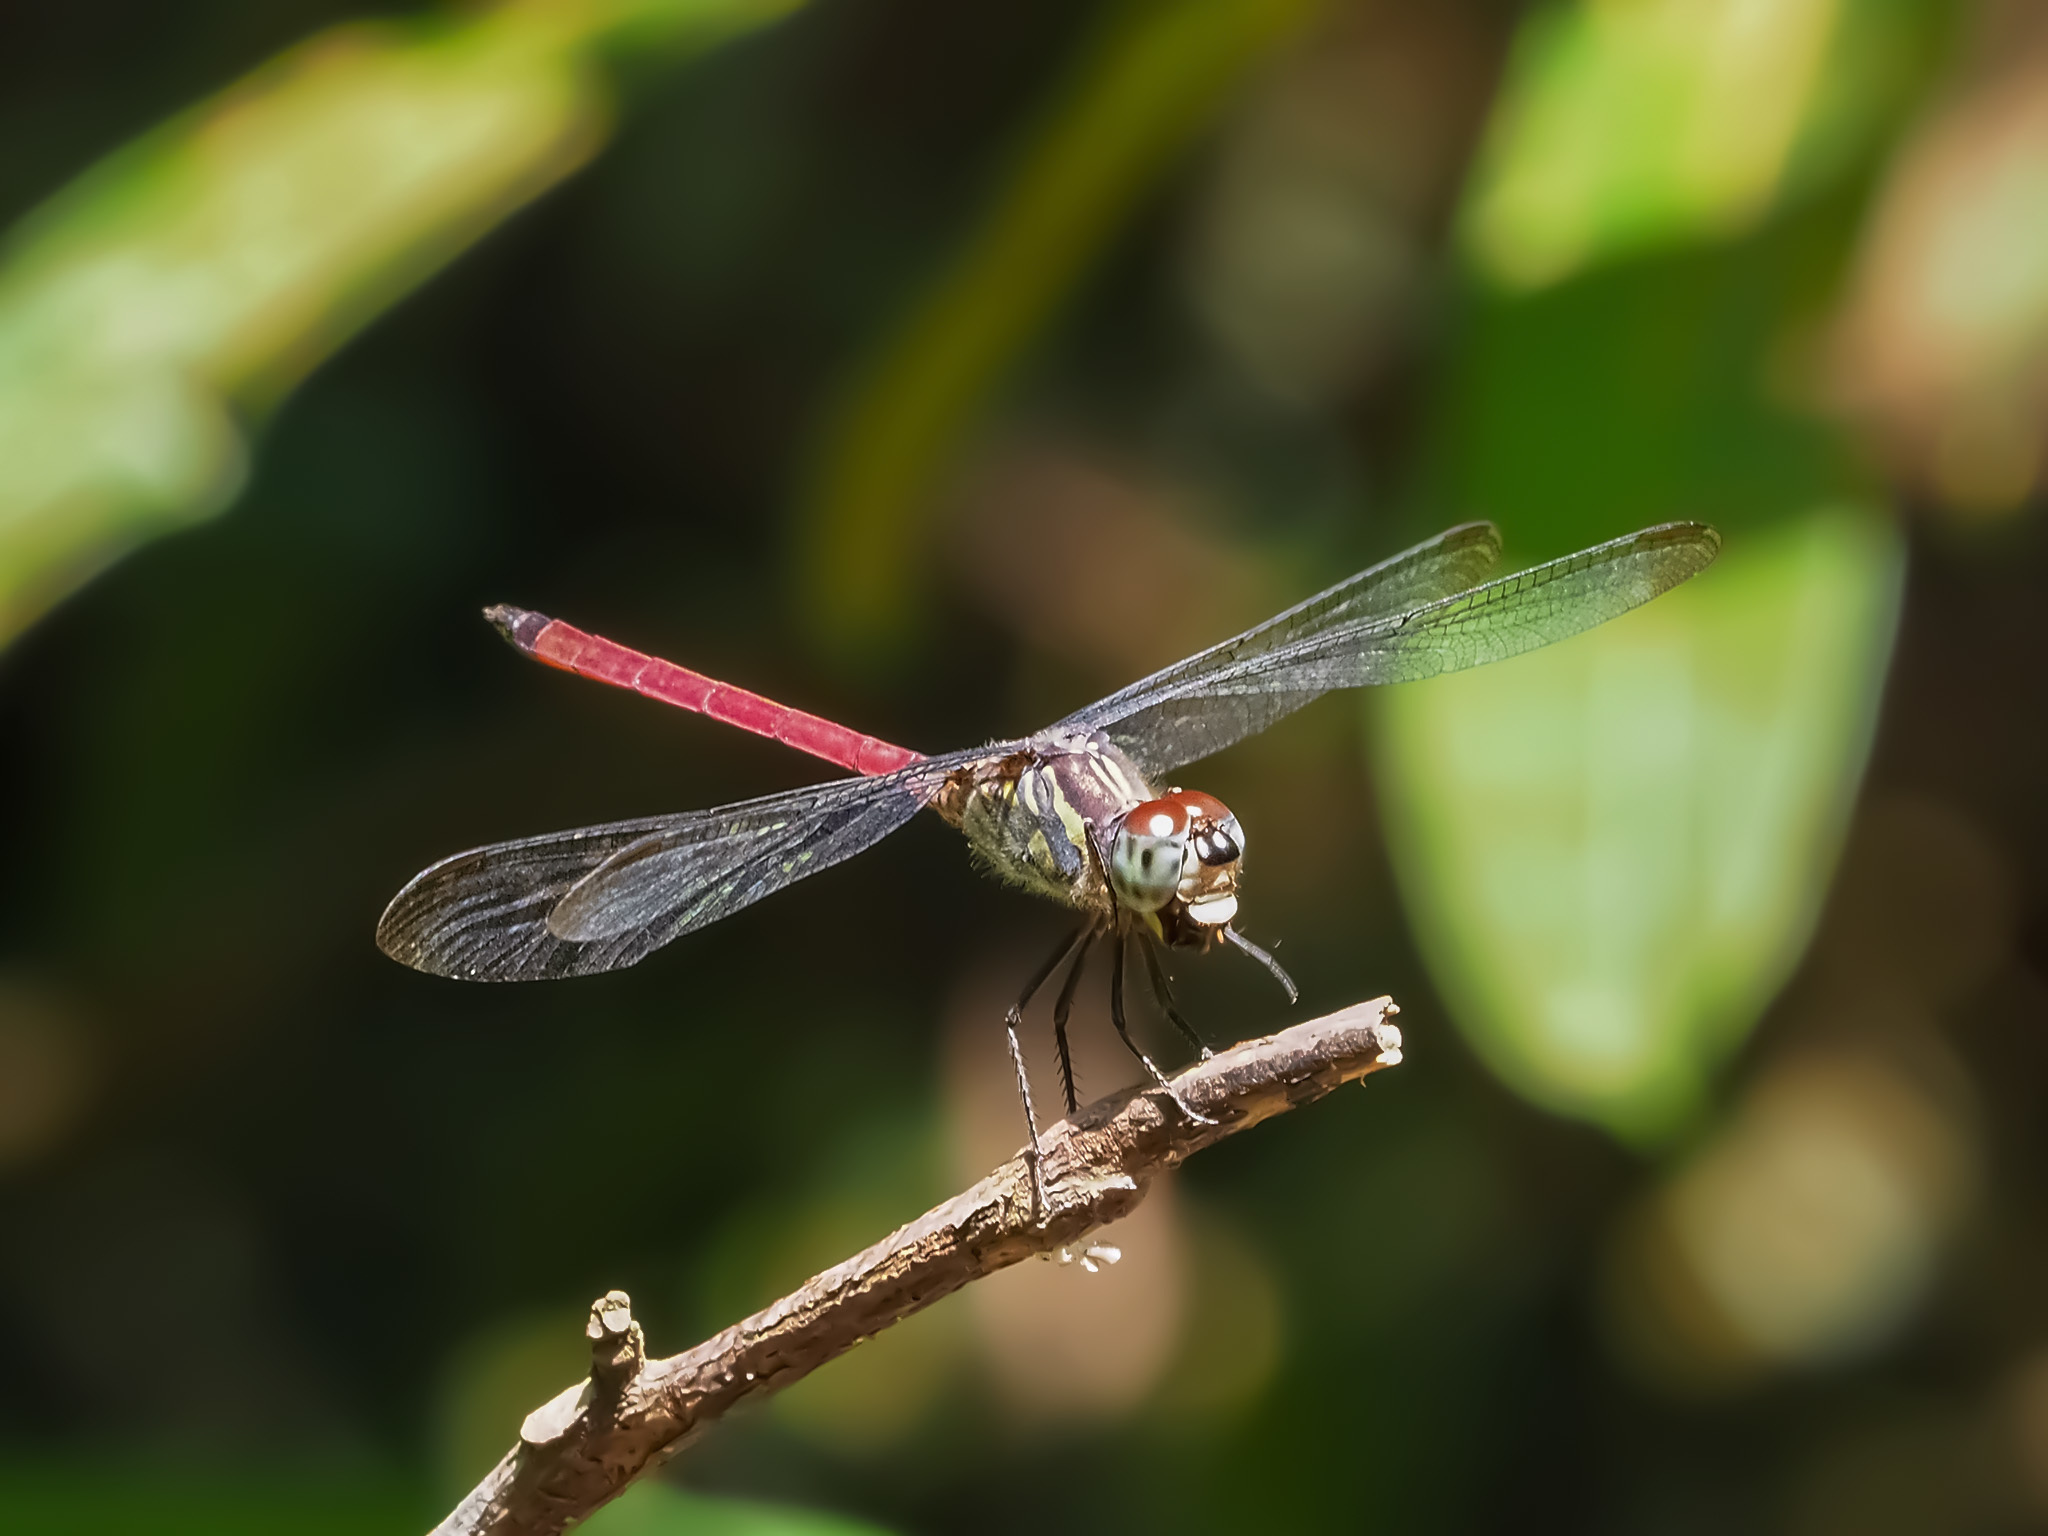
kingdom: Animalia
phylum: Arthropoda
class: Insecta
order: Odonata
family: Libellulidae
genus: Lathrecista
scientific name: Lathrecista asiatica
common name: Scarlet grenadier
